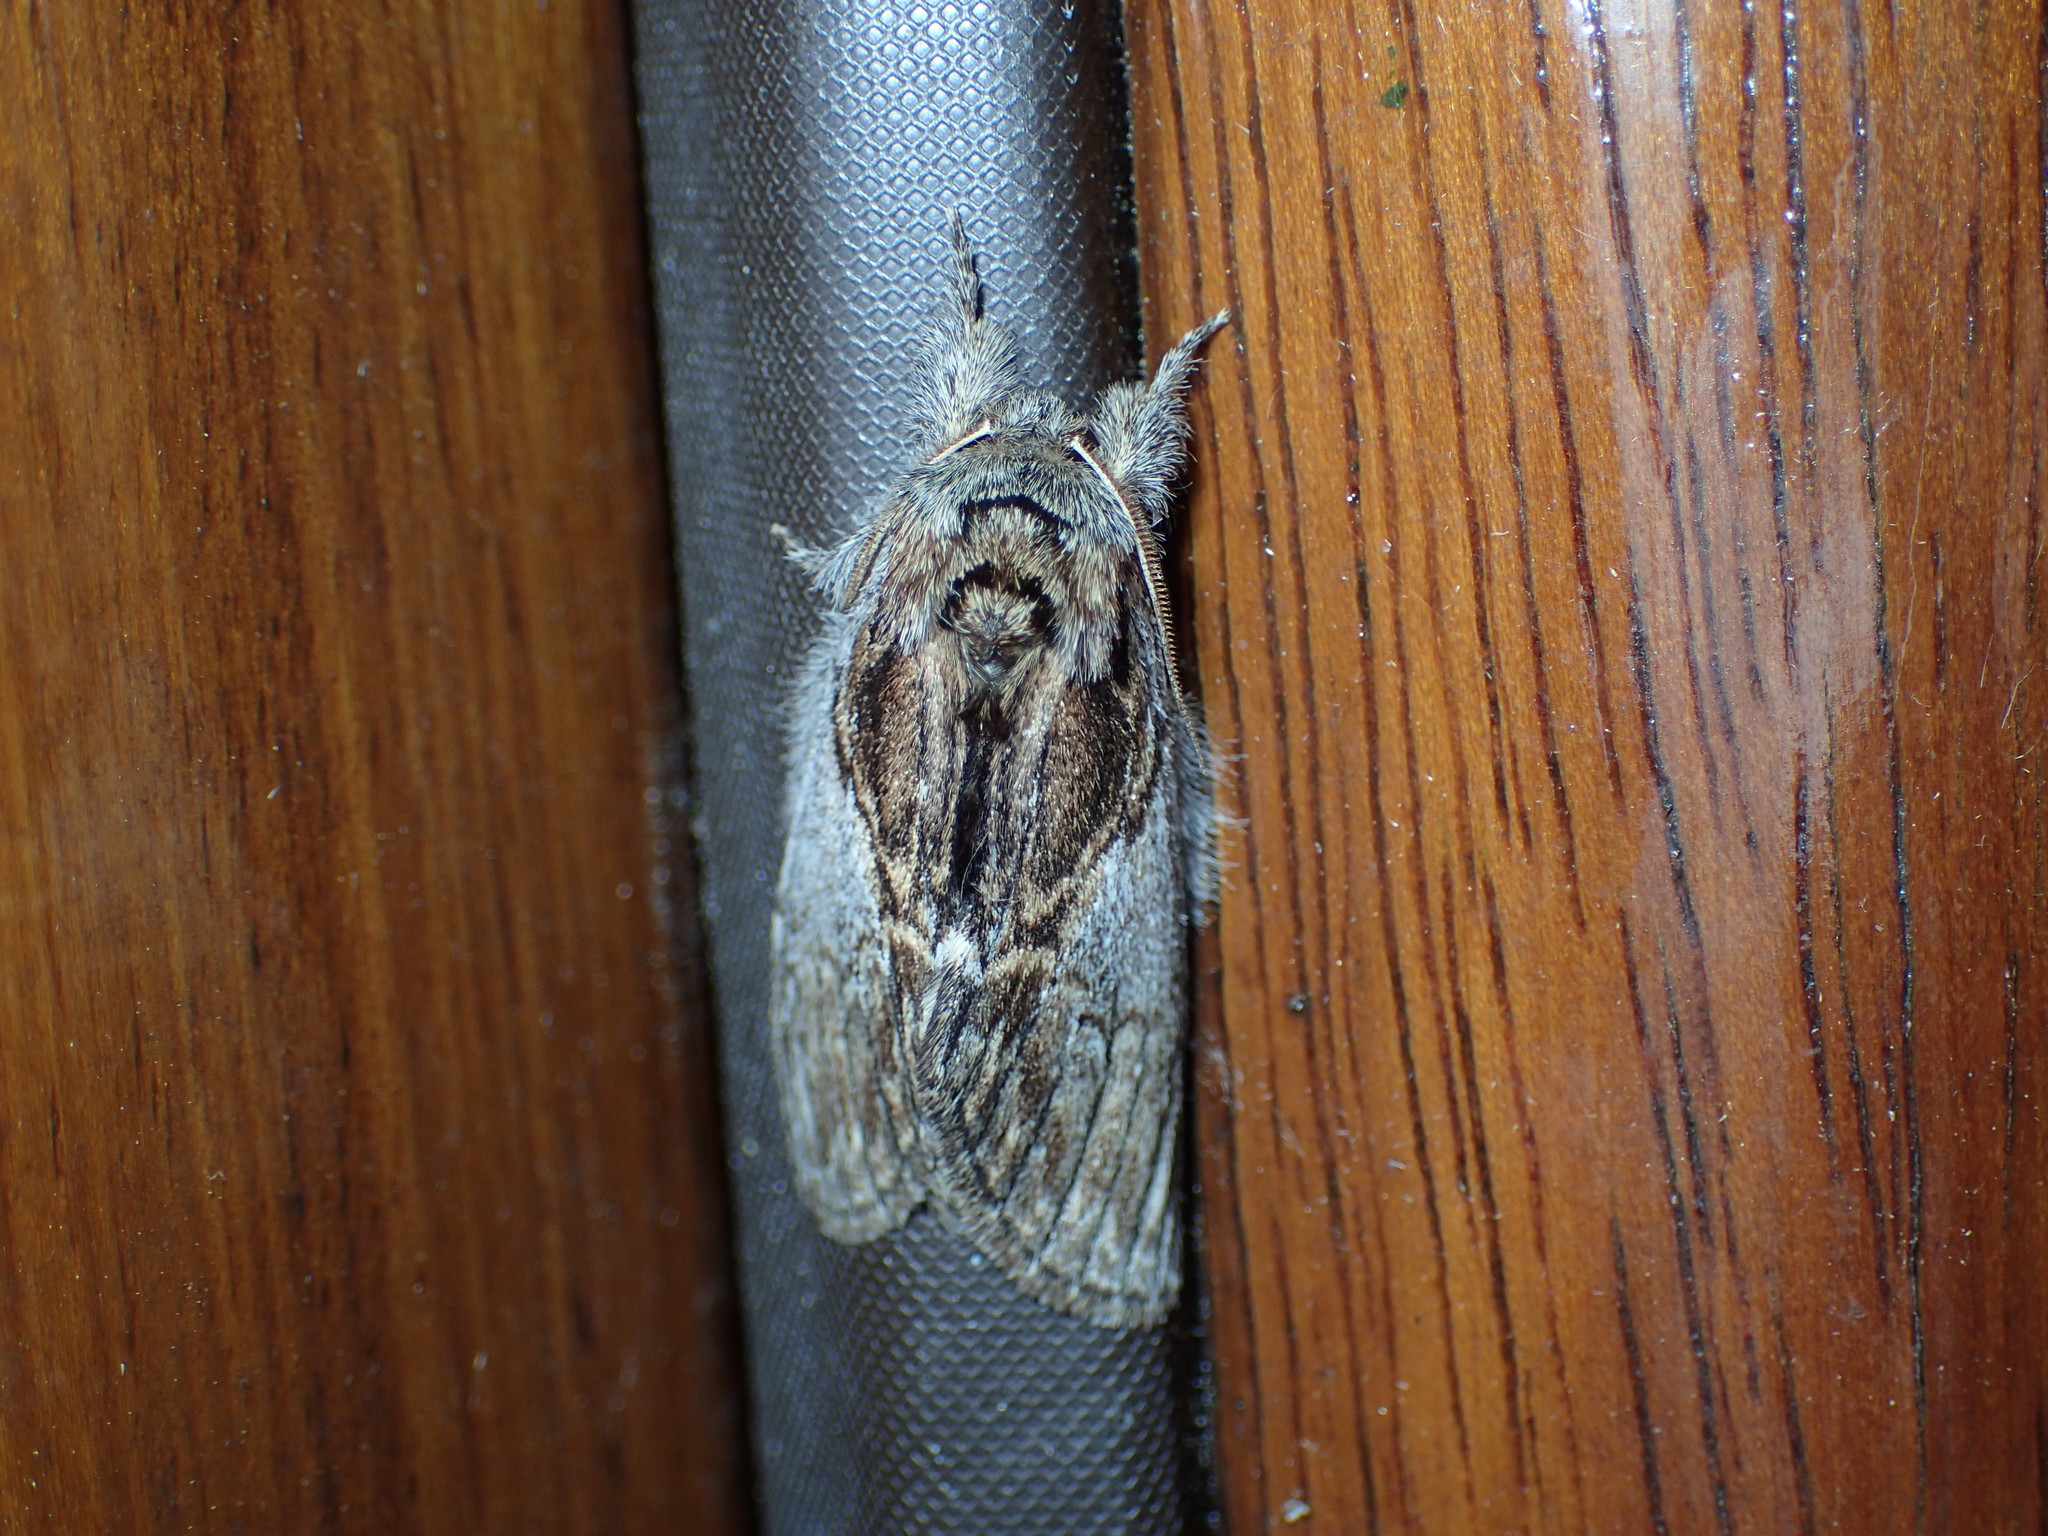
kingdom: Animalia
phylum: Arthropoda
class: Insecta
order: Lepidoptera
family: Notodontidae
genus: Peridea
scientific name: Peridea basitriens
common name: Oval-based prominent
